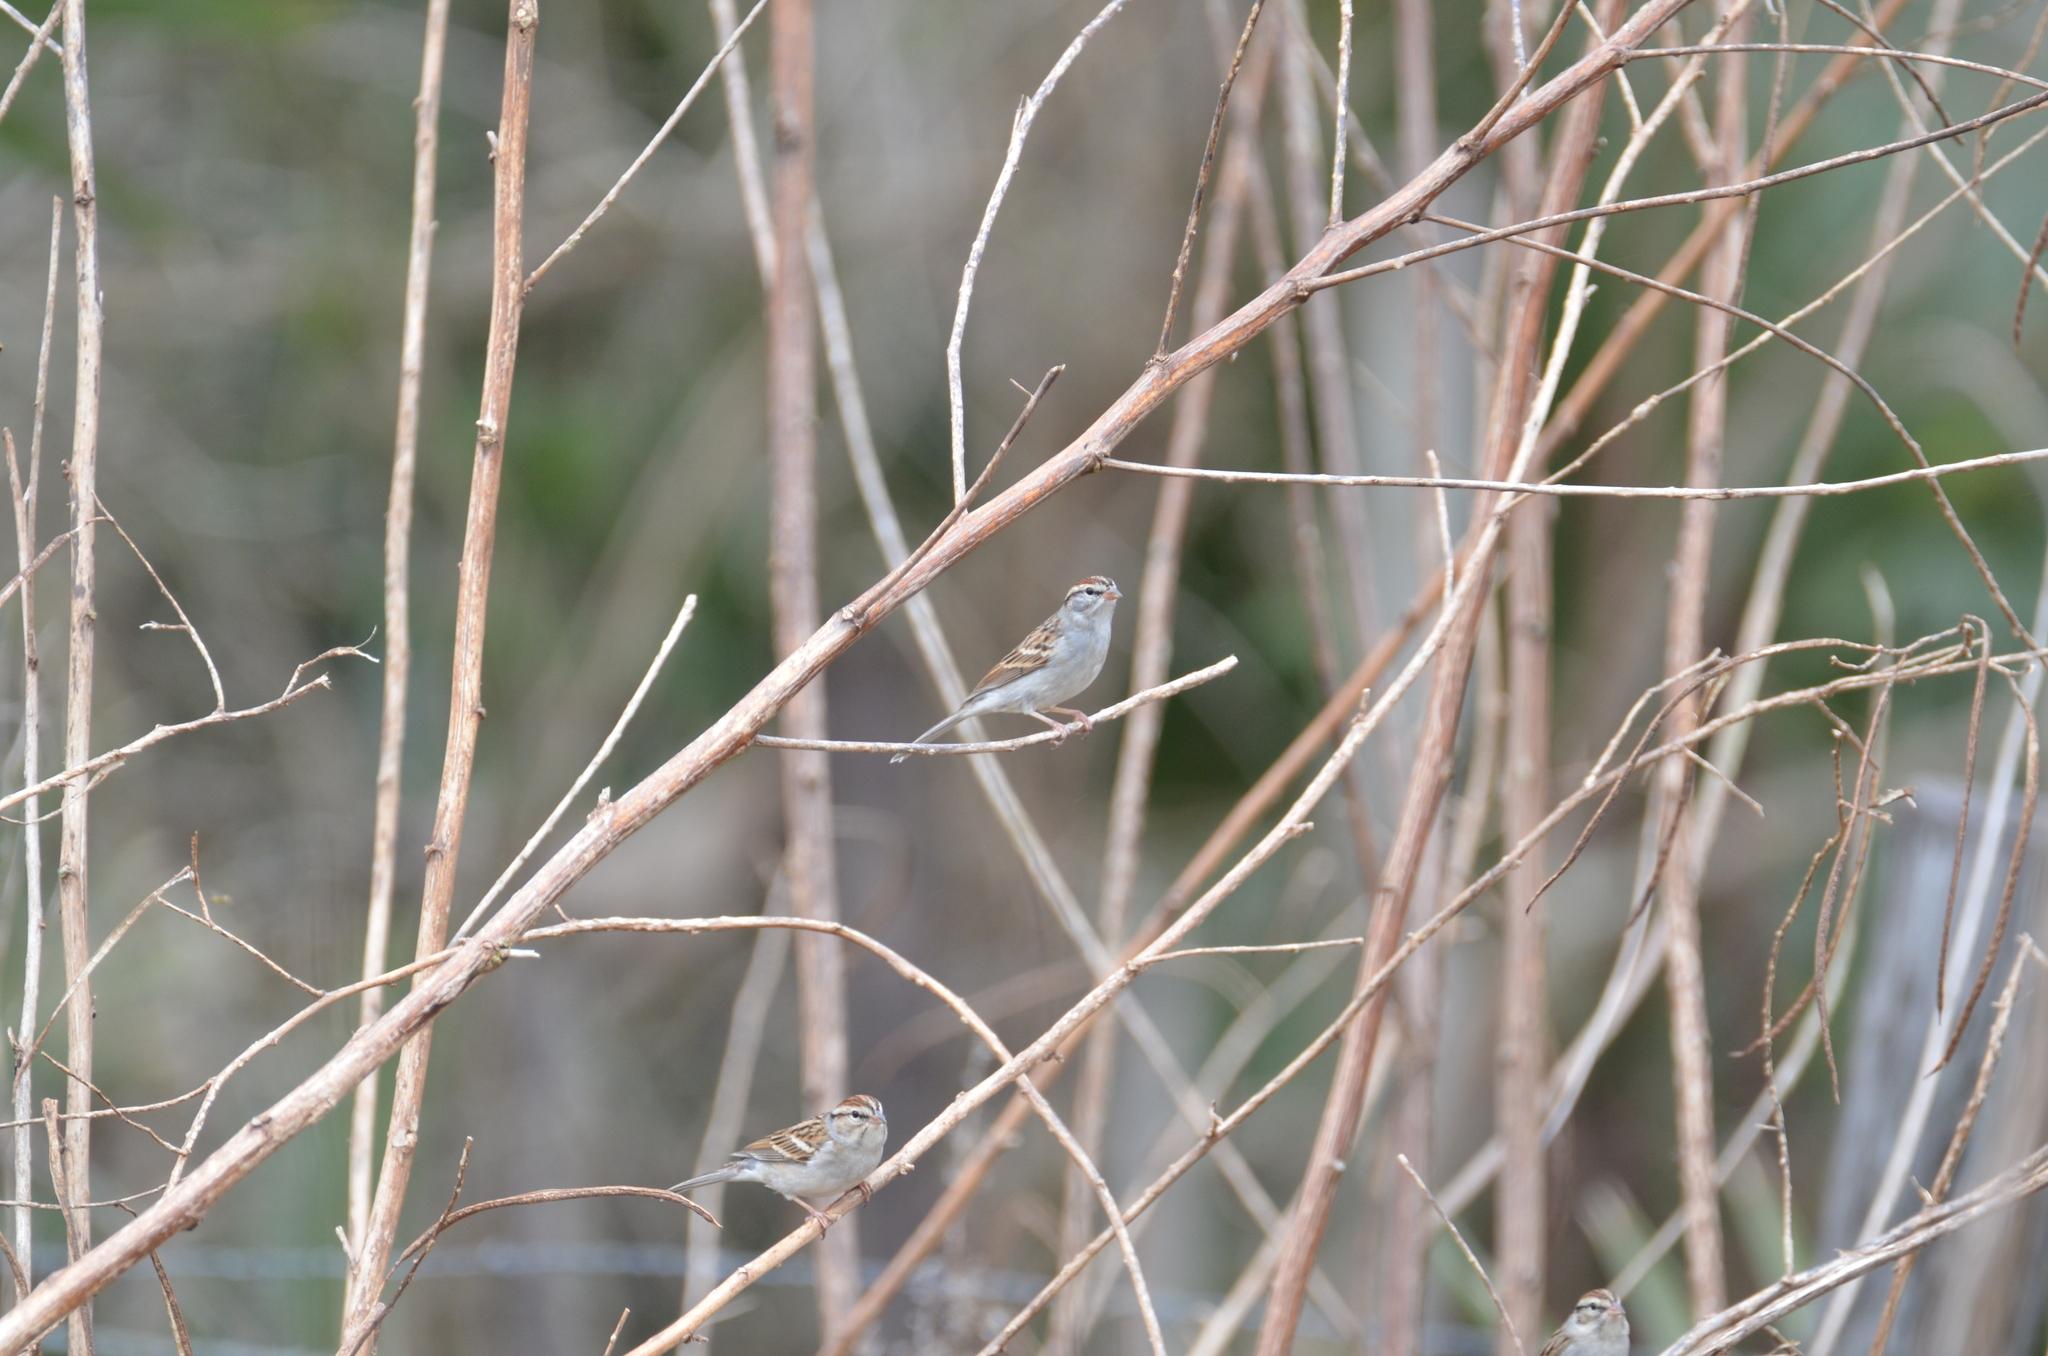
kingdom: Animalia
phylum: Chordata
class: Aves
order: Passeriformes
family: Passerellidae
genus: Spizella
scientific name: Spizella passerina
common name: Chipping sparrow
